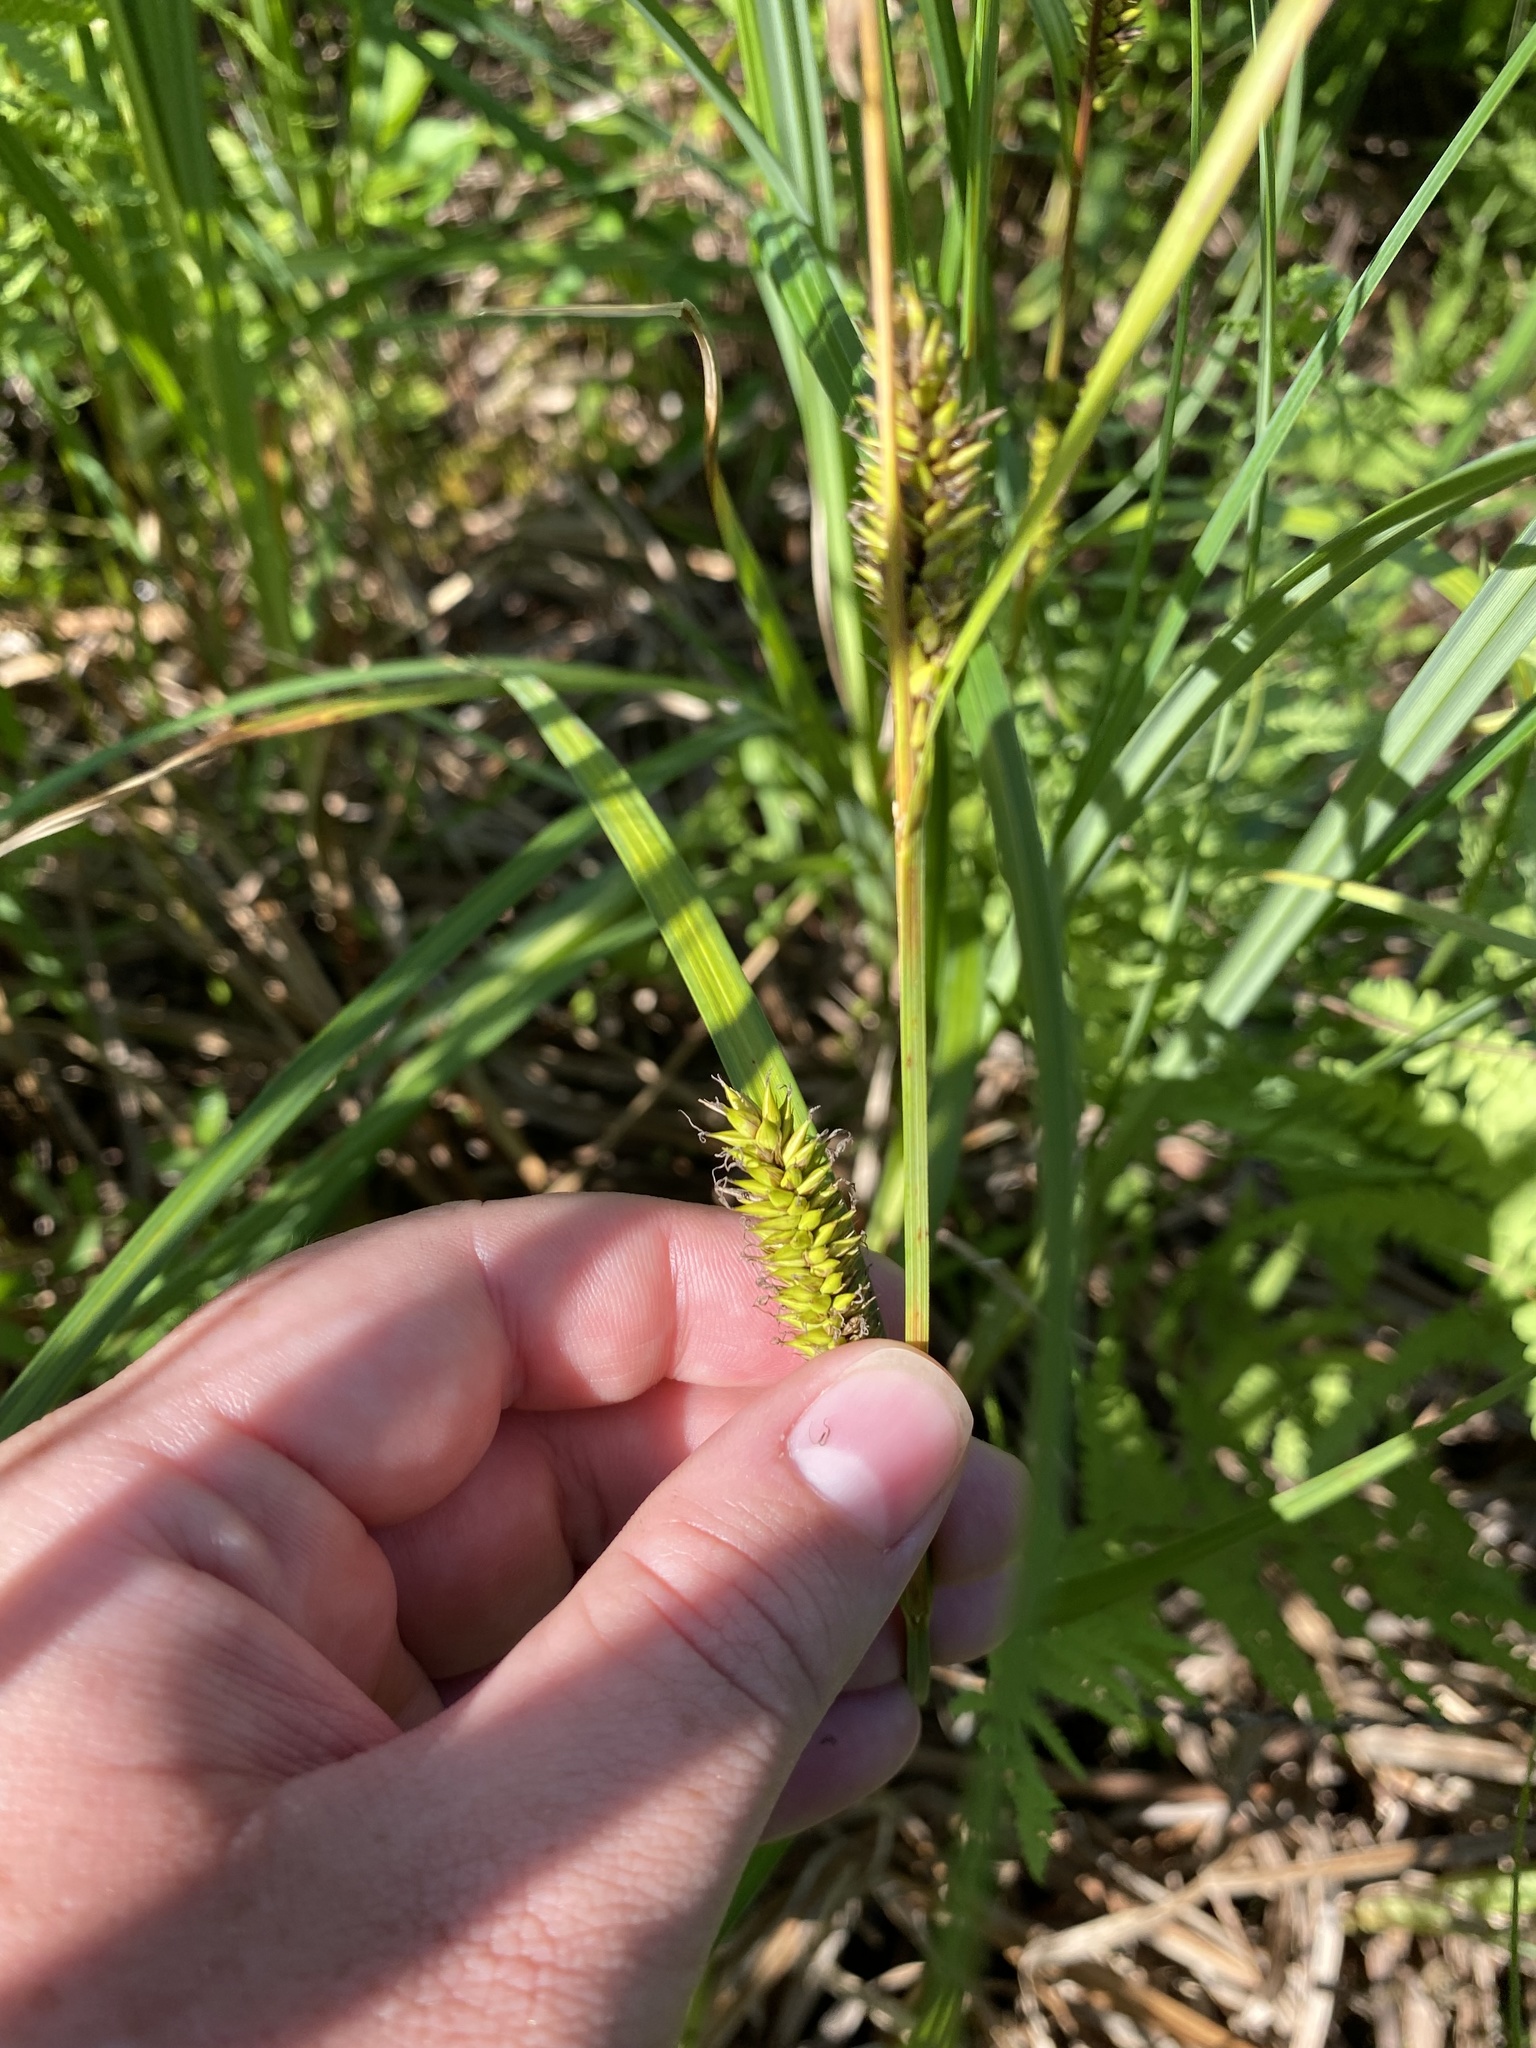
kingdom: Plantae
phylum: Tracheophyta
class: Liliopsida
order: Poales
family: Cyperaceae
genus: Carex
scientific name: Carex lacustris
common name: Common lake sedge
